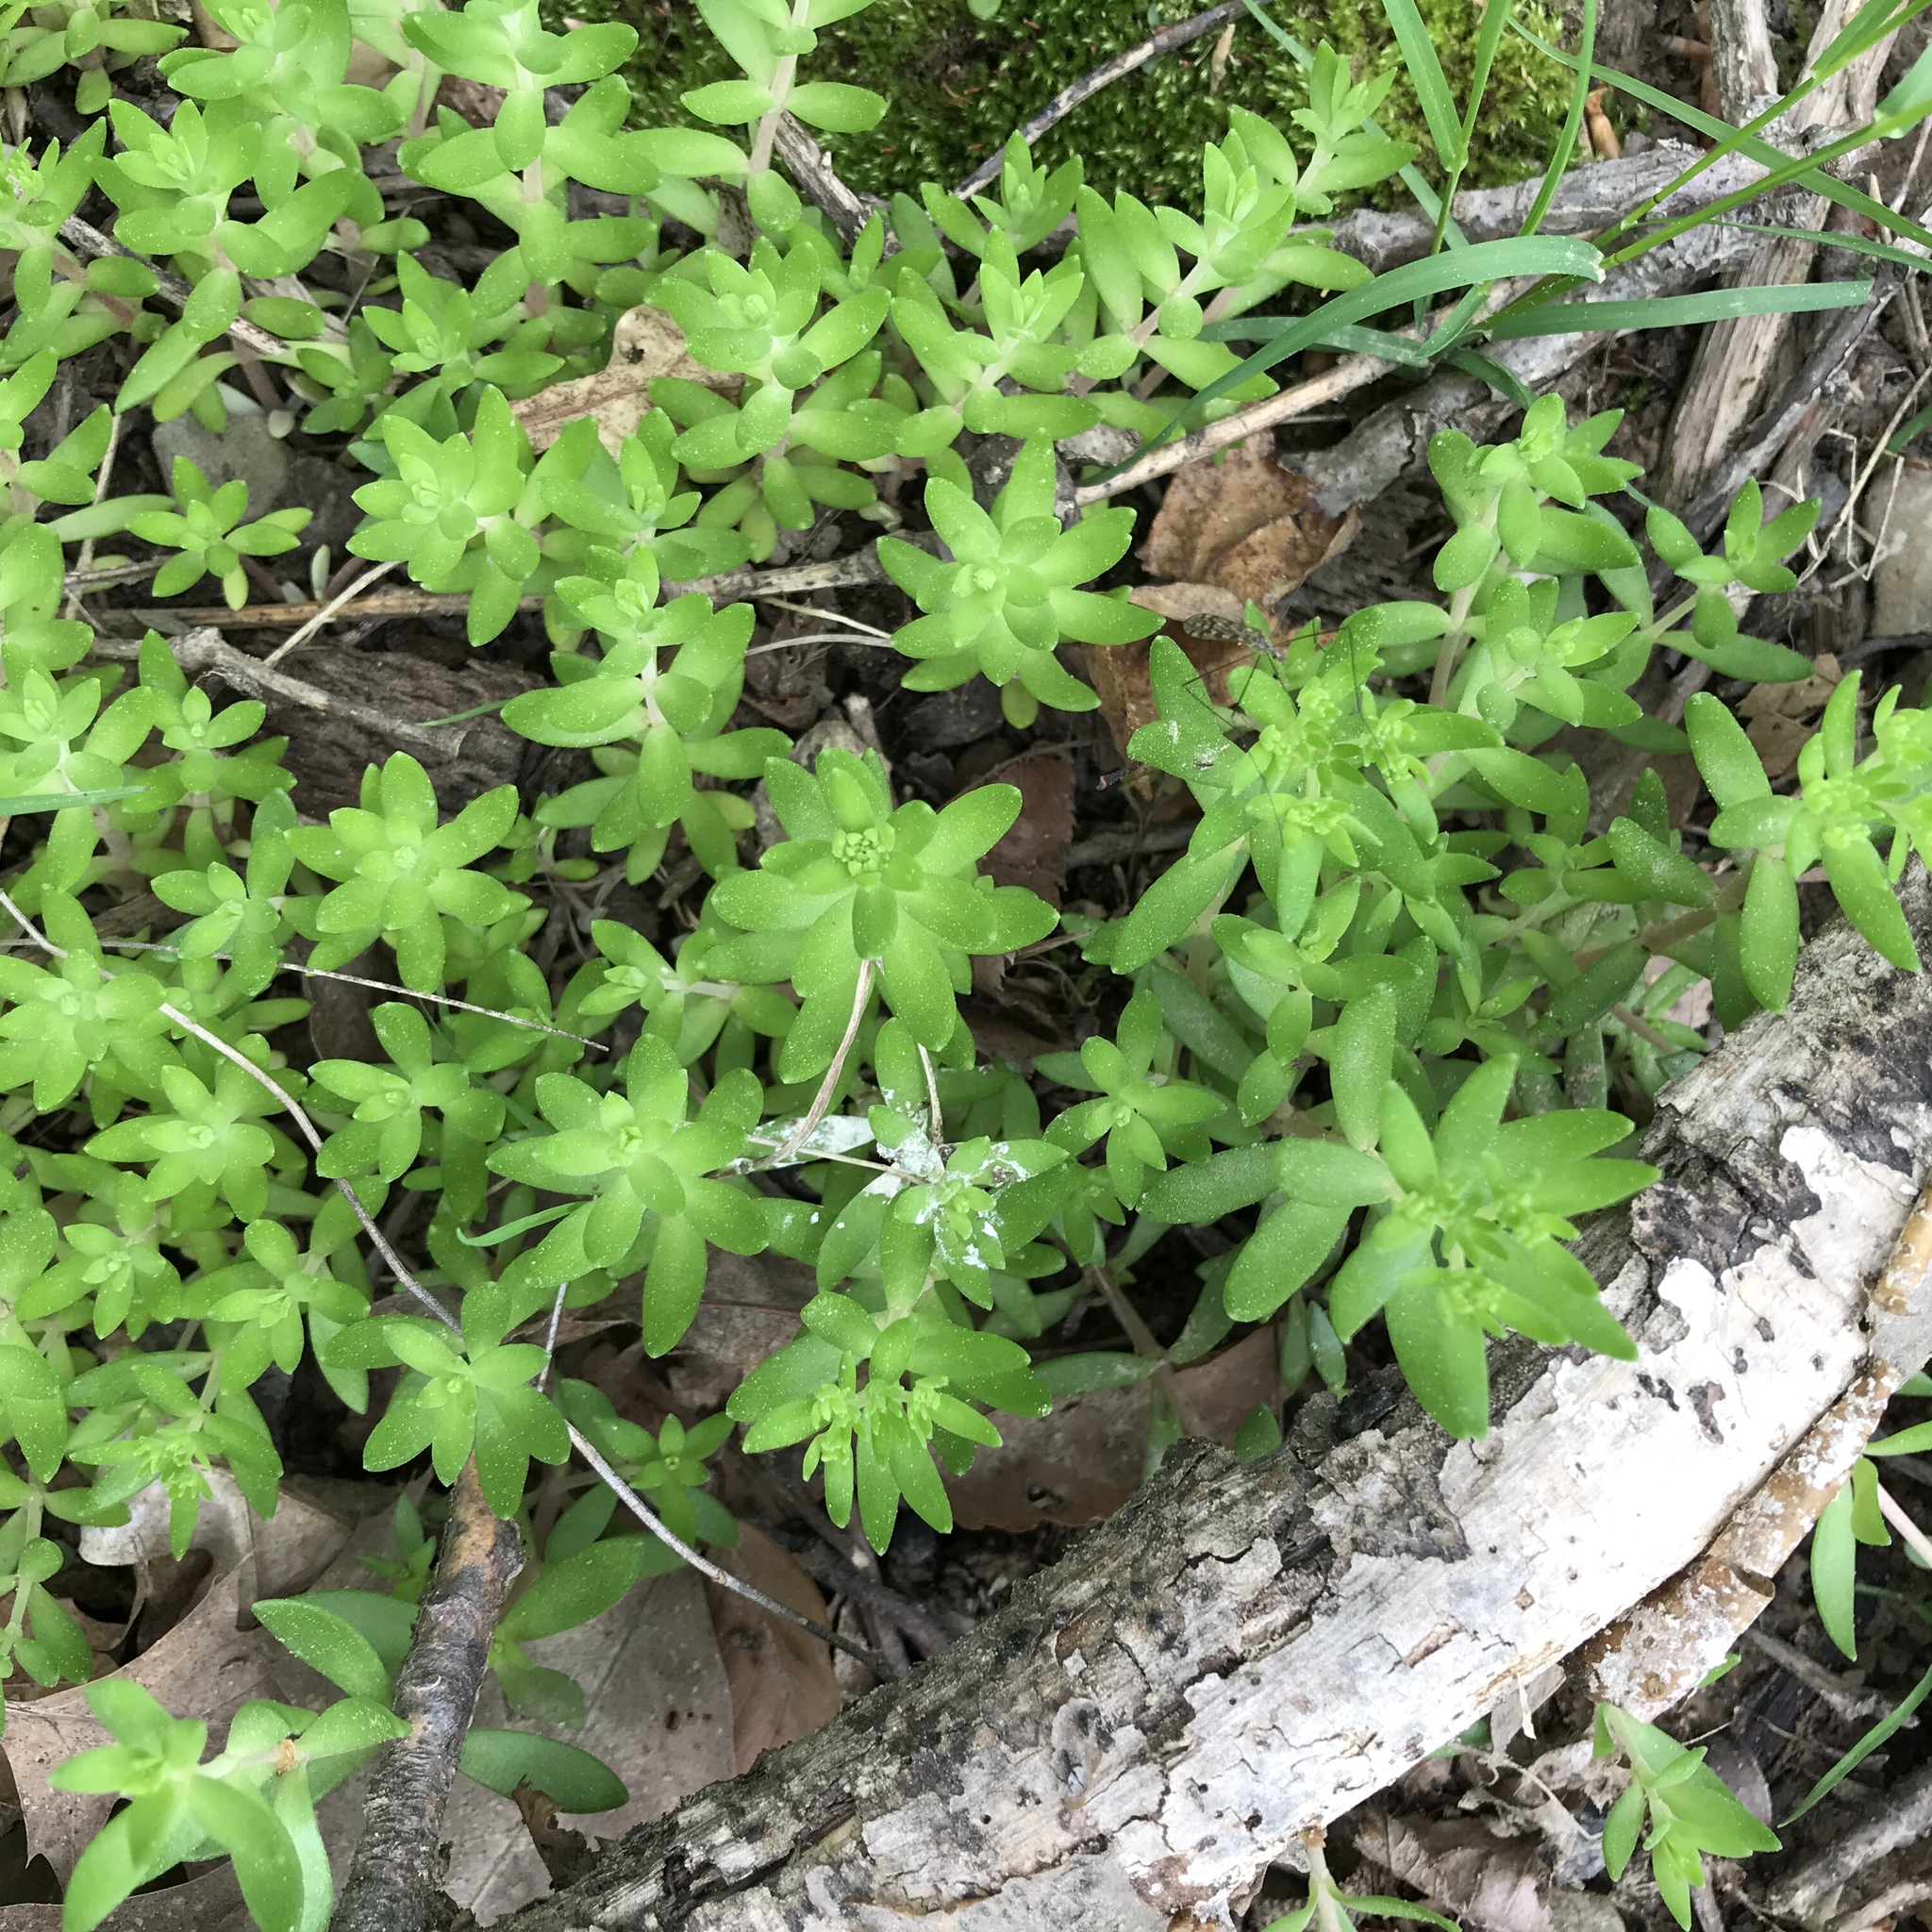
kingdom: Plantae
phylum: Tracheophyta
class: Magnoliopsida
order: Saxifragales
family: Crassulaceae
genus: Sedum
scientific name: Sedum sarmentosum
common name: Stringy stonecrop
